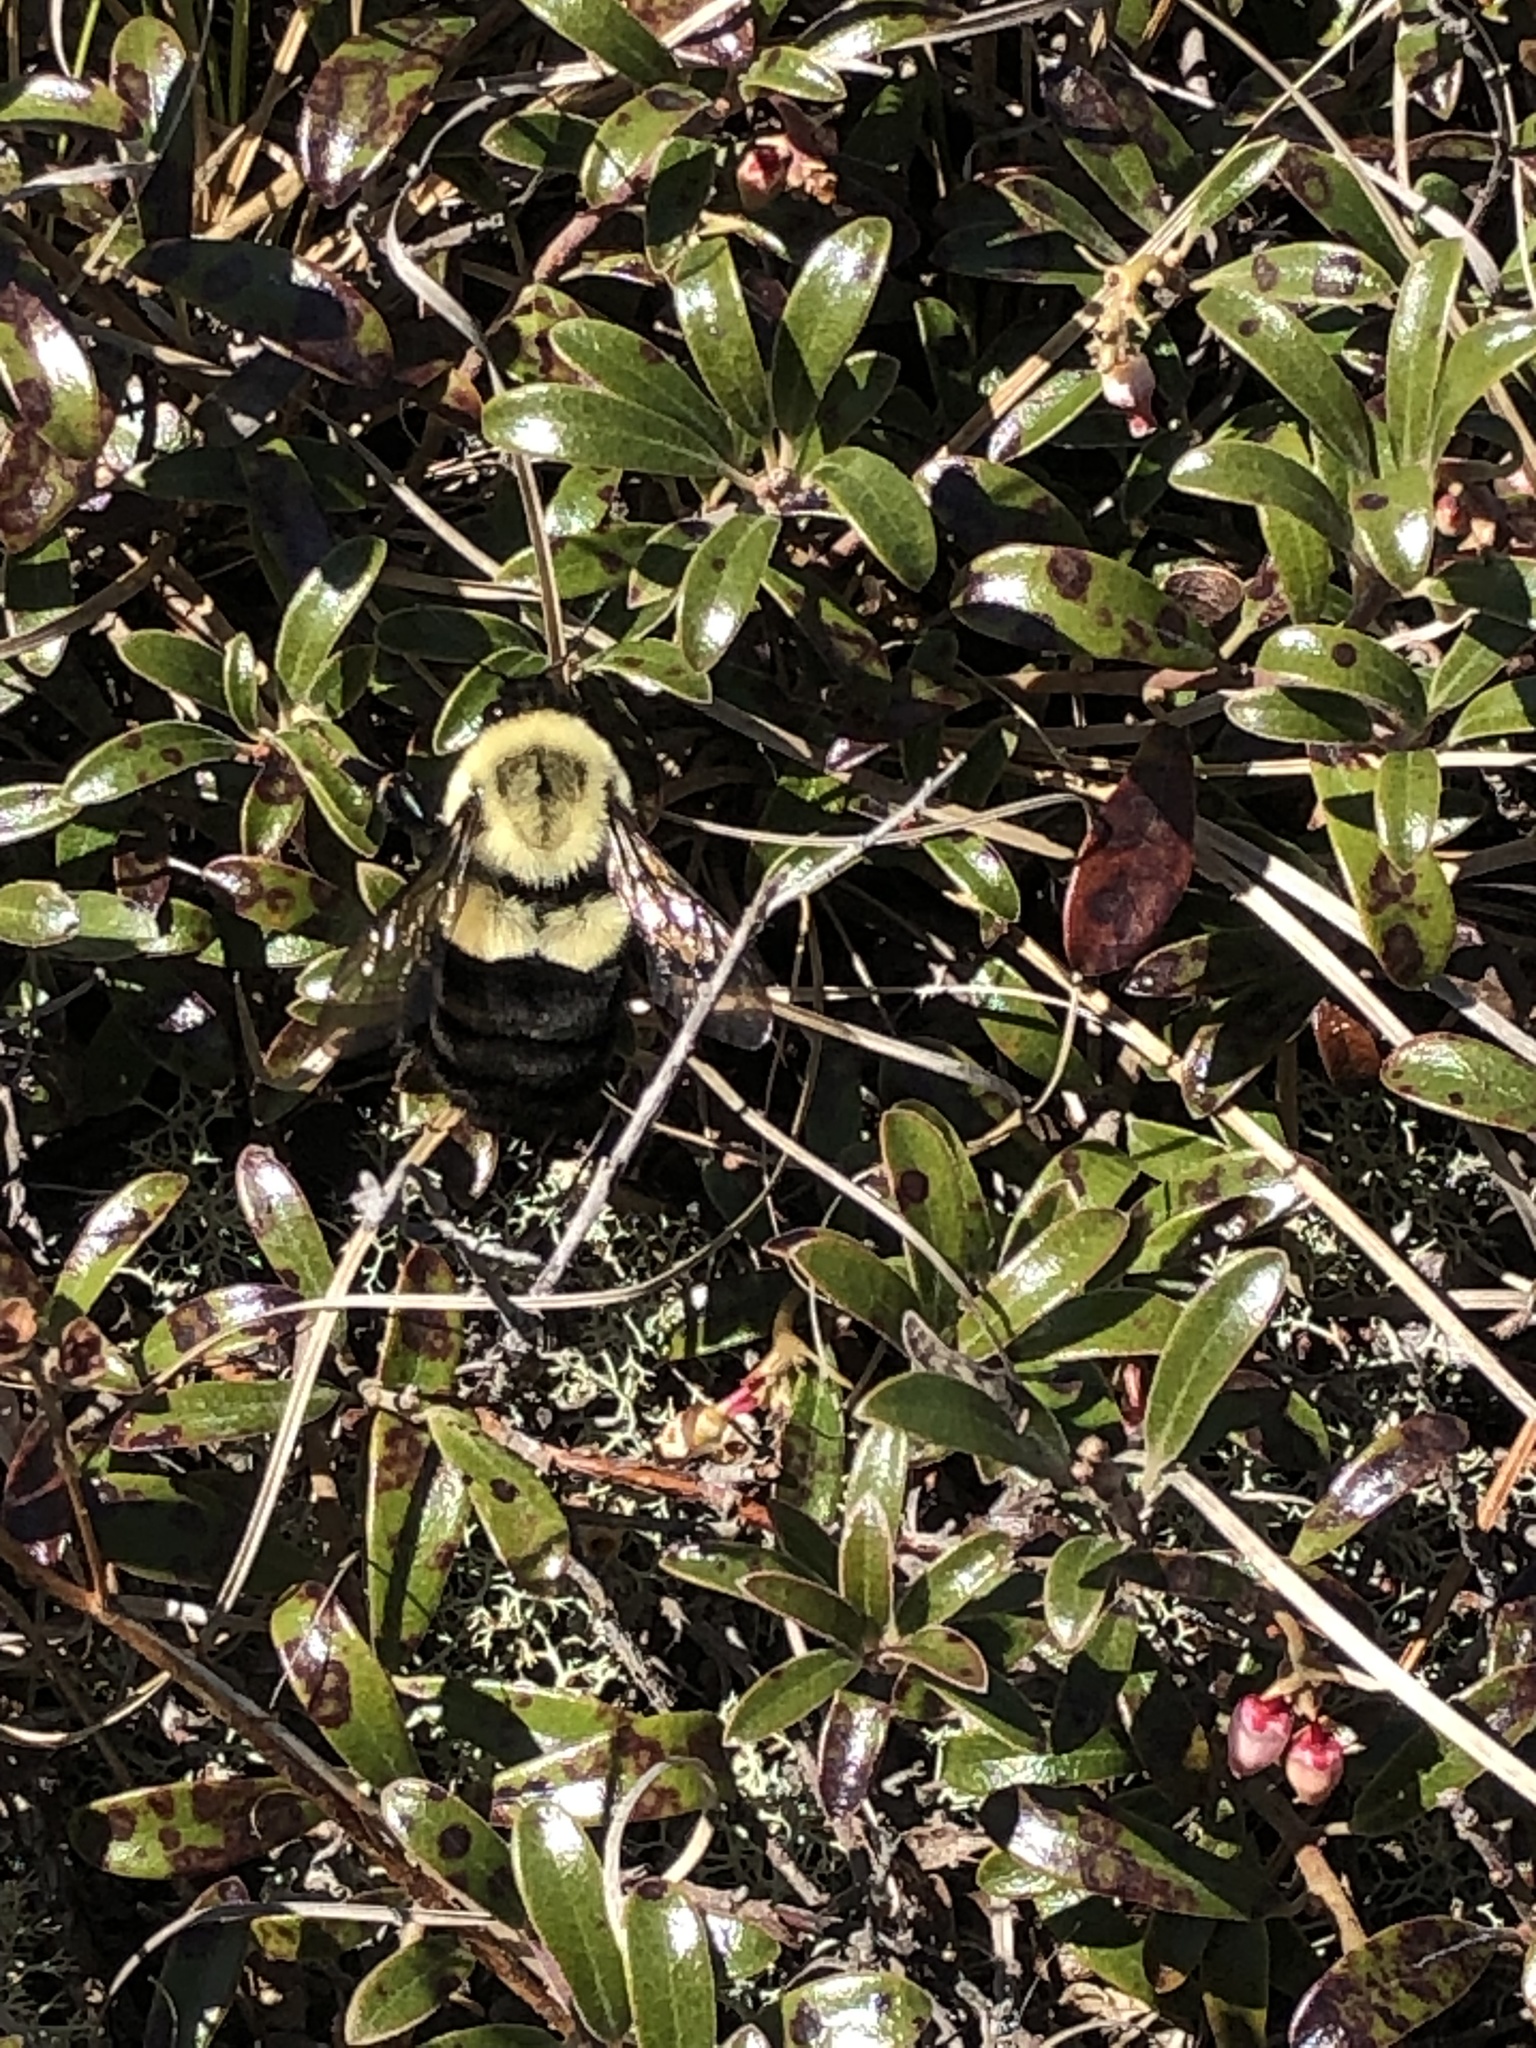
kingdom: Animalia
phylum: Arthropoda
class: Insecta
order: Hymenoptera
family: Apidae
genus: Bombus
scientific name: Bombus impatiens
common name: Common eastern bumble bee
